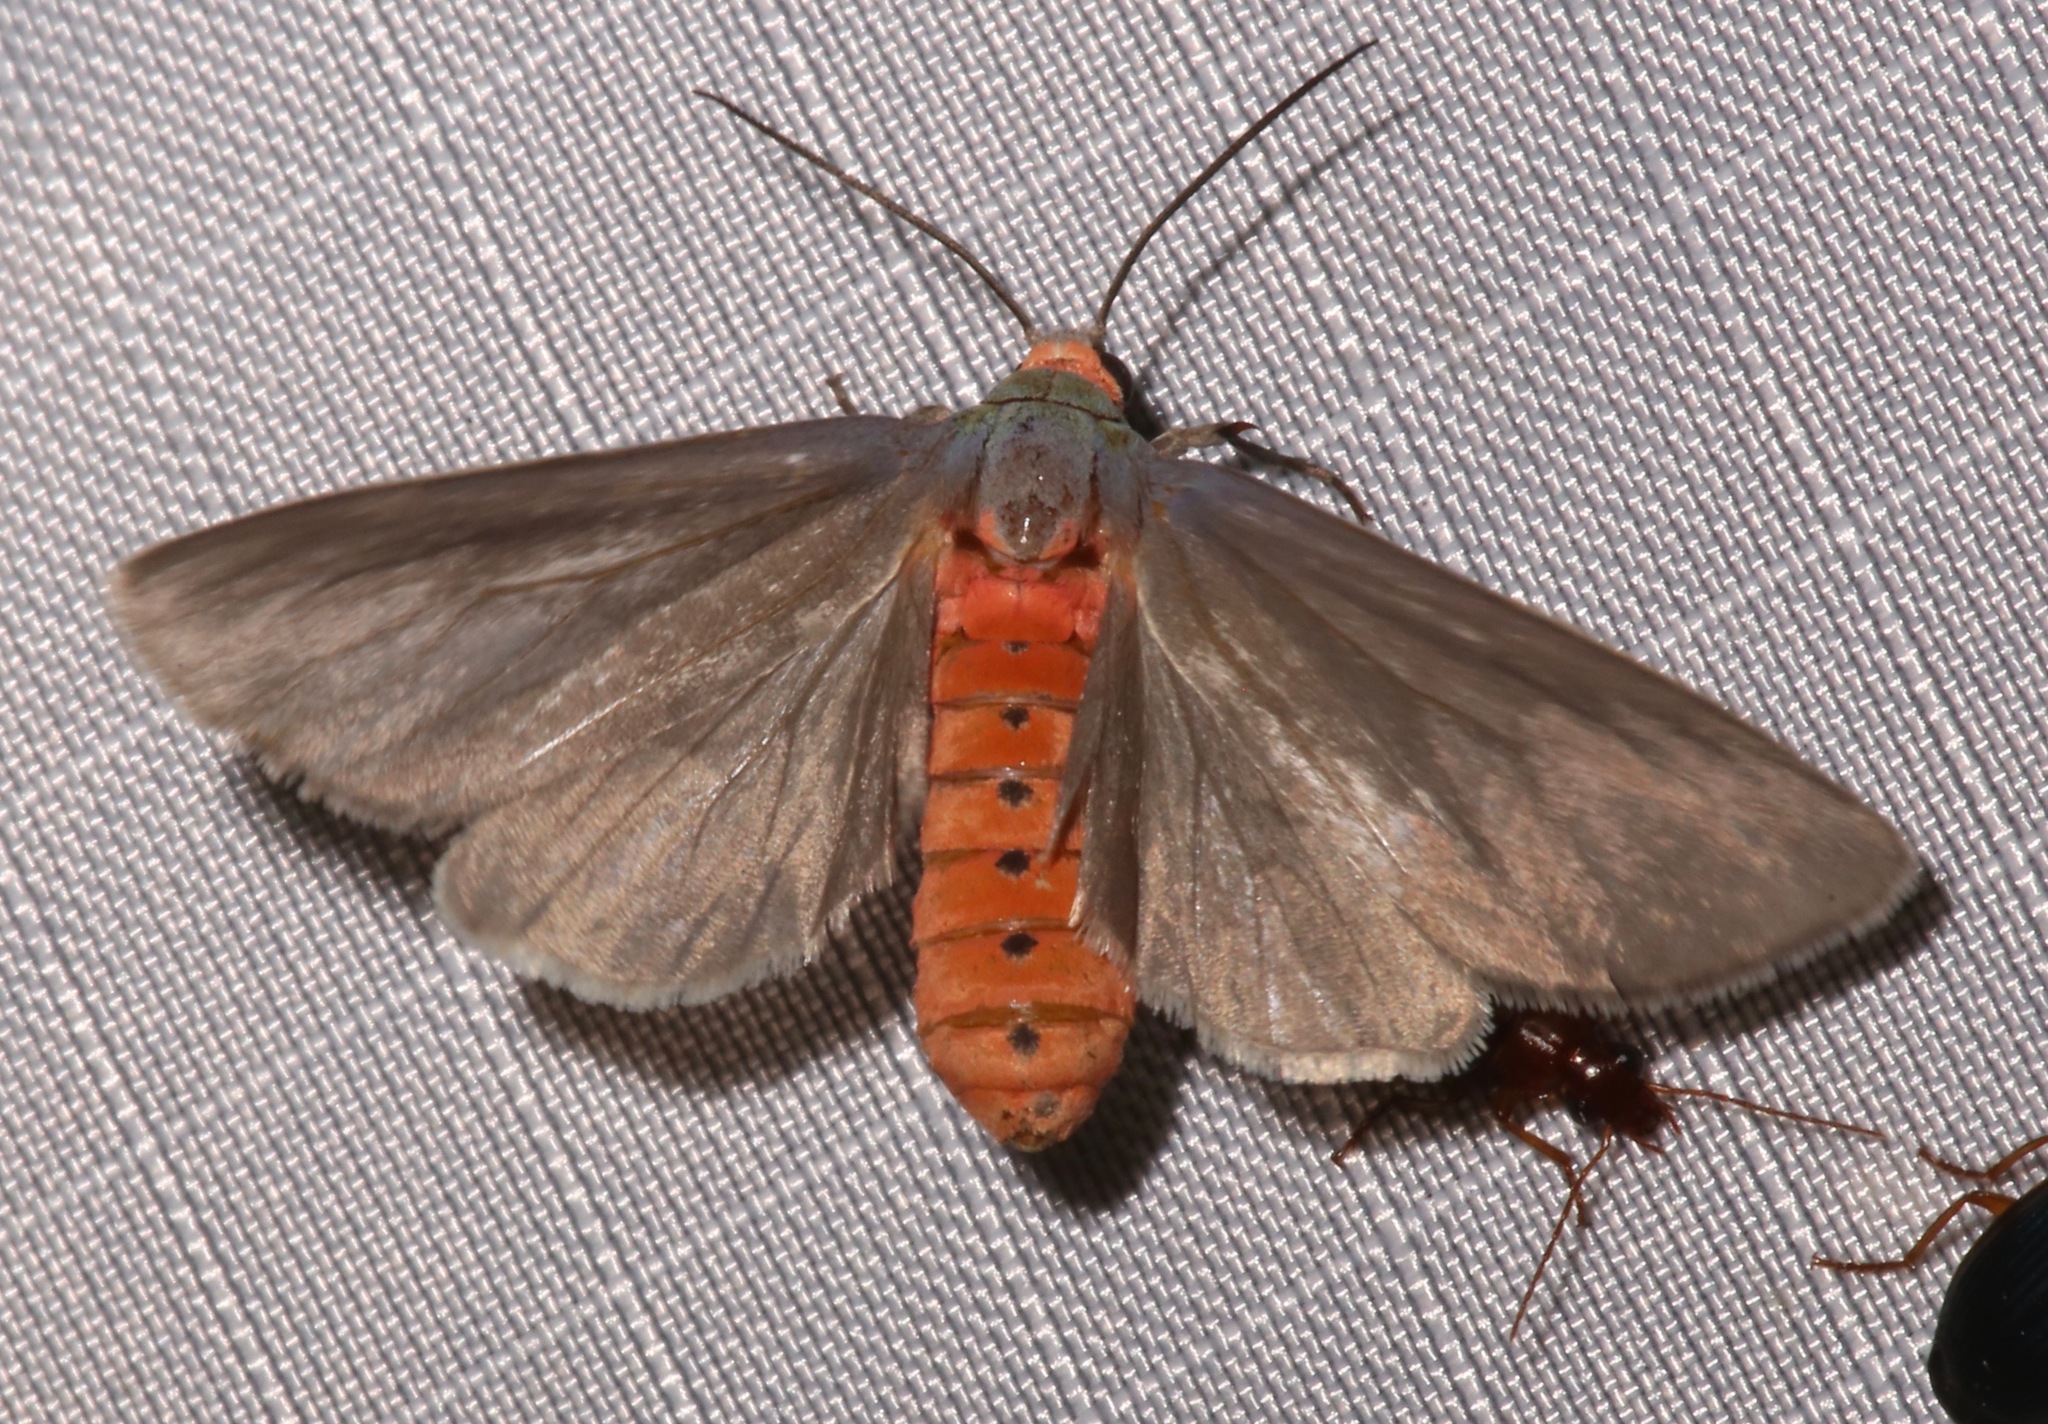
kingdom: Animalia
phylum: Arthropoda
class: Insecta
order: Lepidoptera
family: Erebidae
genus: Pygarctia
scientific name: Pygarctia murina
